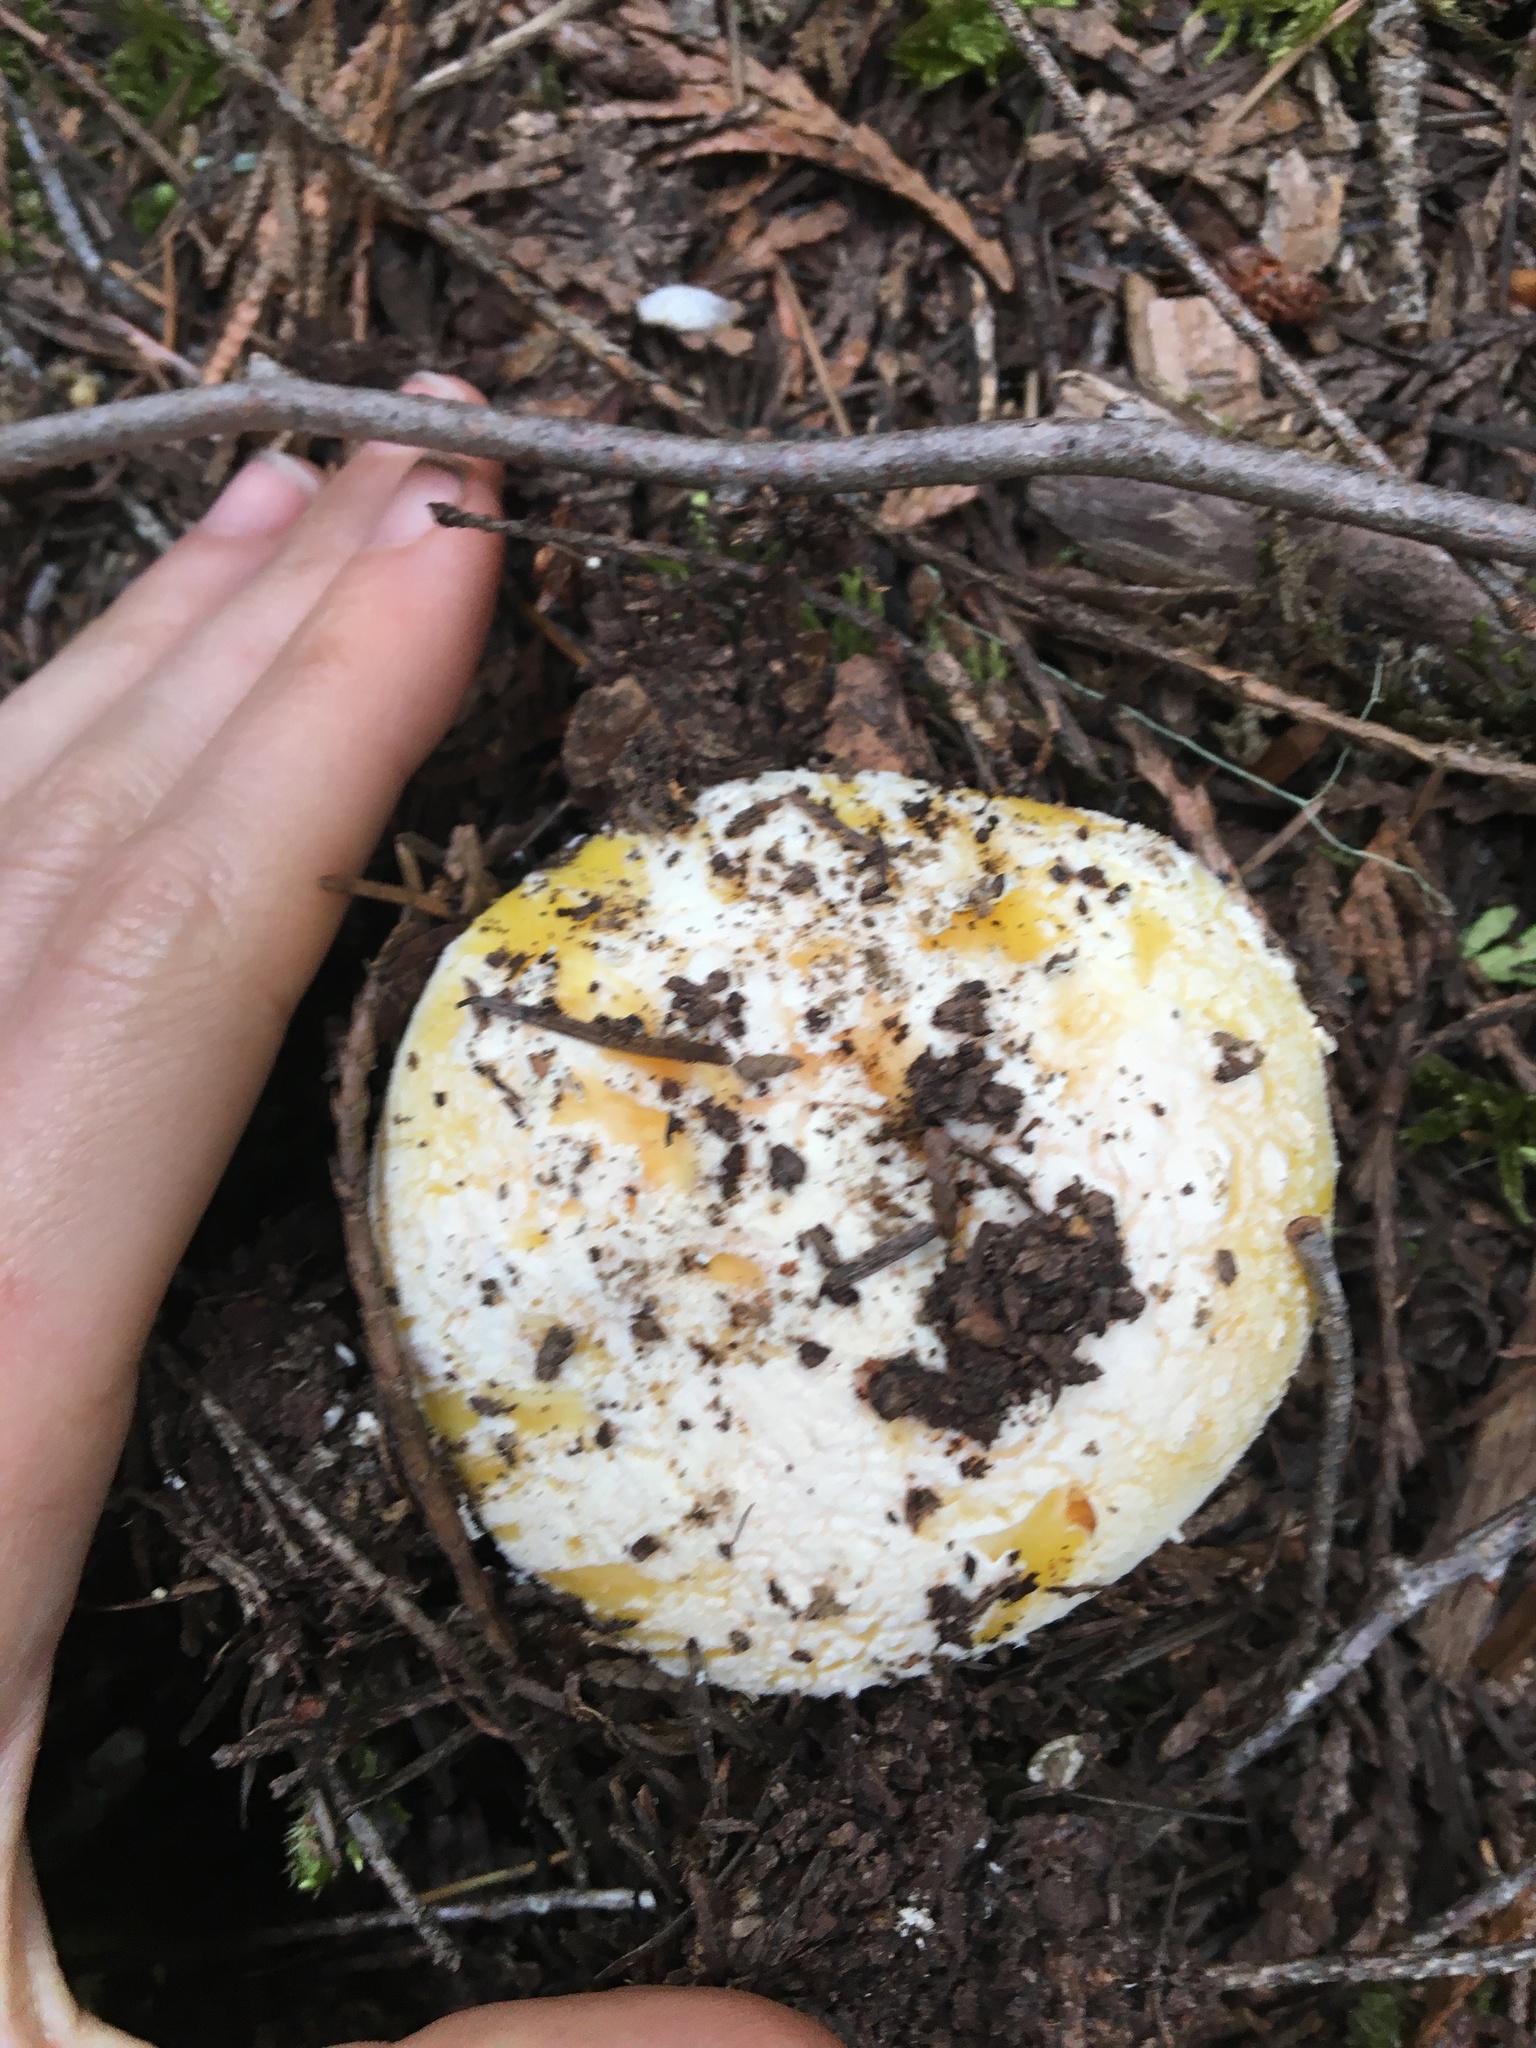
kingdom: Fungi
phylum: Basidiomycota
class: Agaricomycetes
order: Agaricales
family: Amanitaceae
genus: Amanita
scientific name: Amanita aprica
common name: Sunshine amanita
